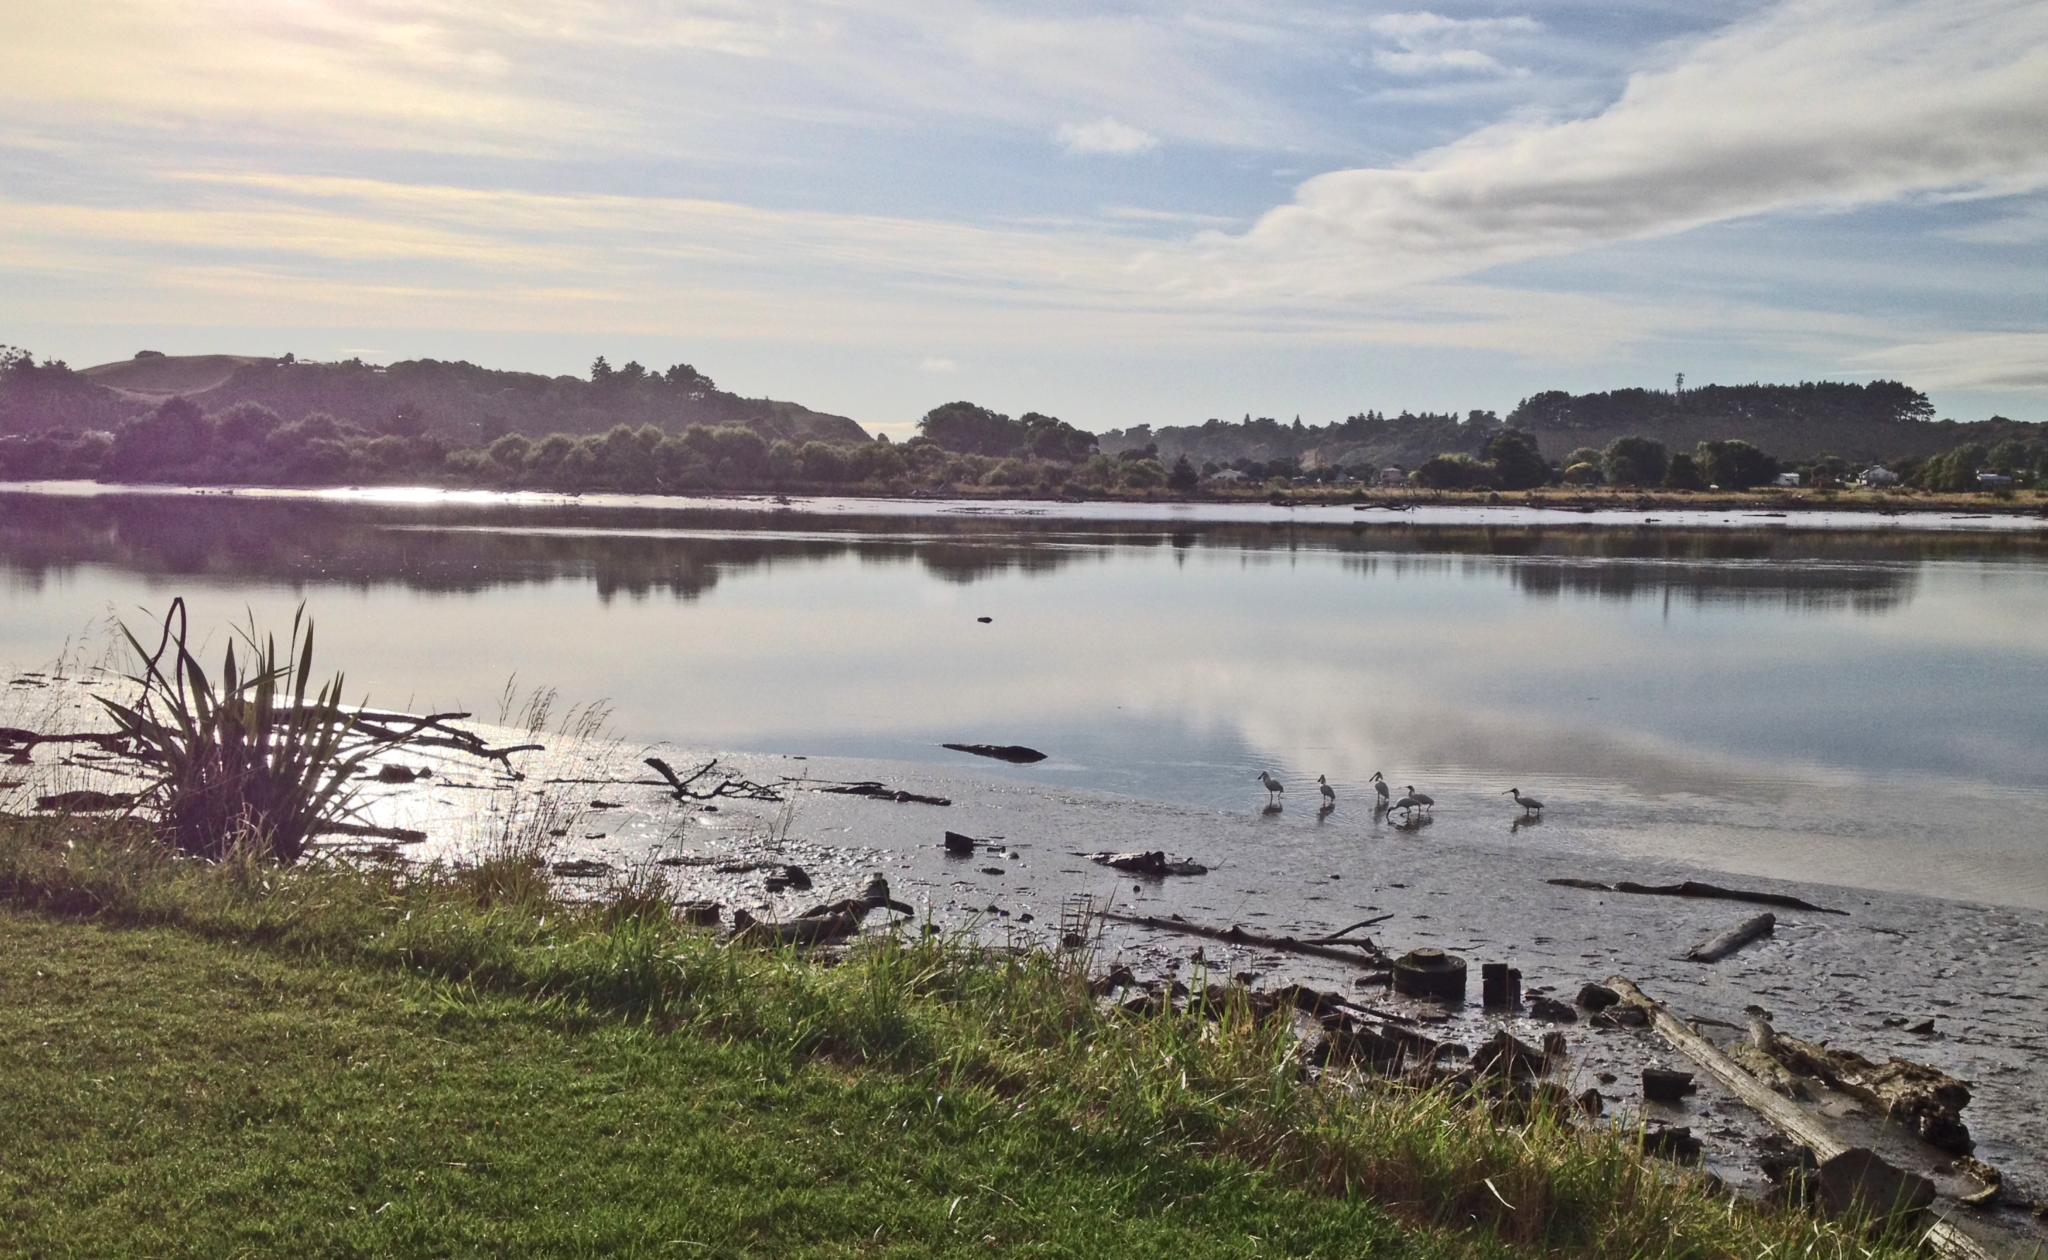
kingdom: Animalia
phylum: Chordata
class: Aves
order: Pelecaniformes
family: Threskiornithidae
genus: Platalea
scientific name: Platalea regia
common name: Royal spoonbill
